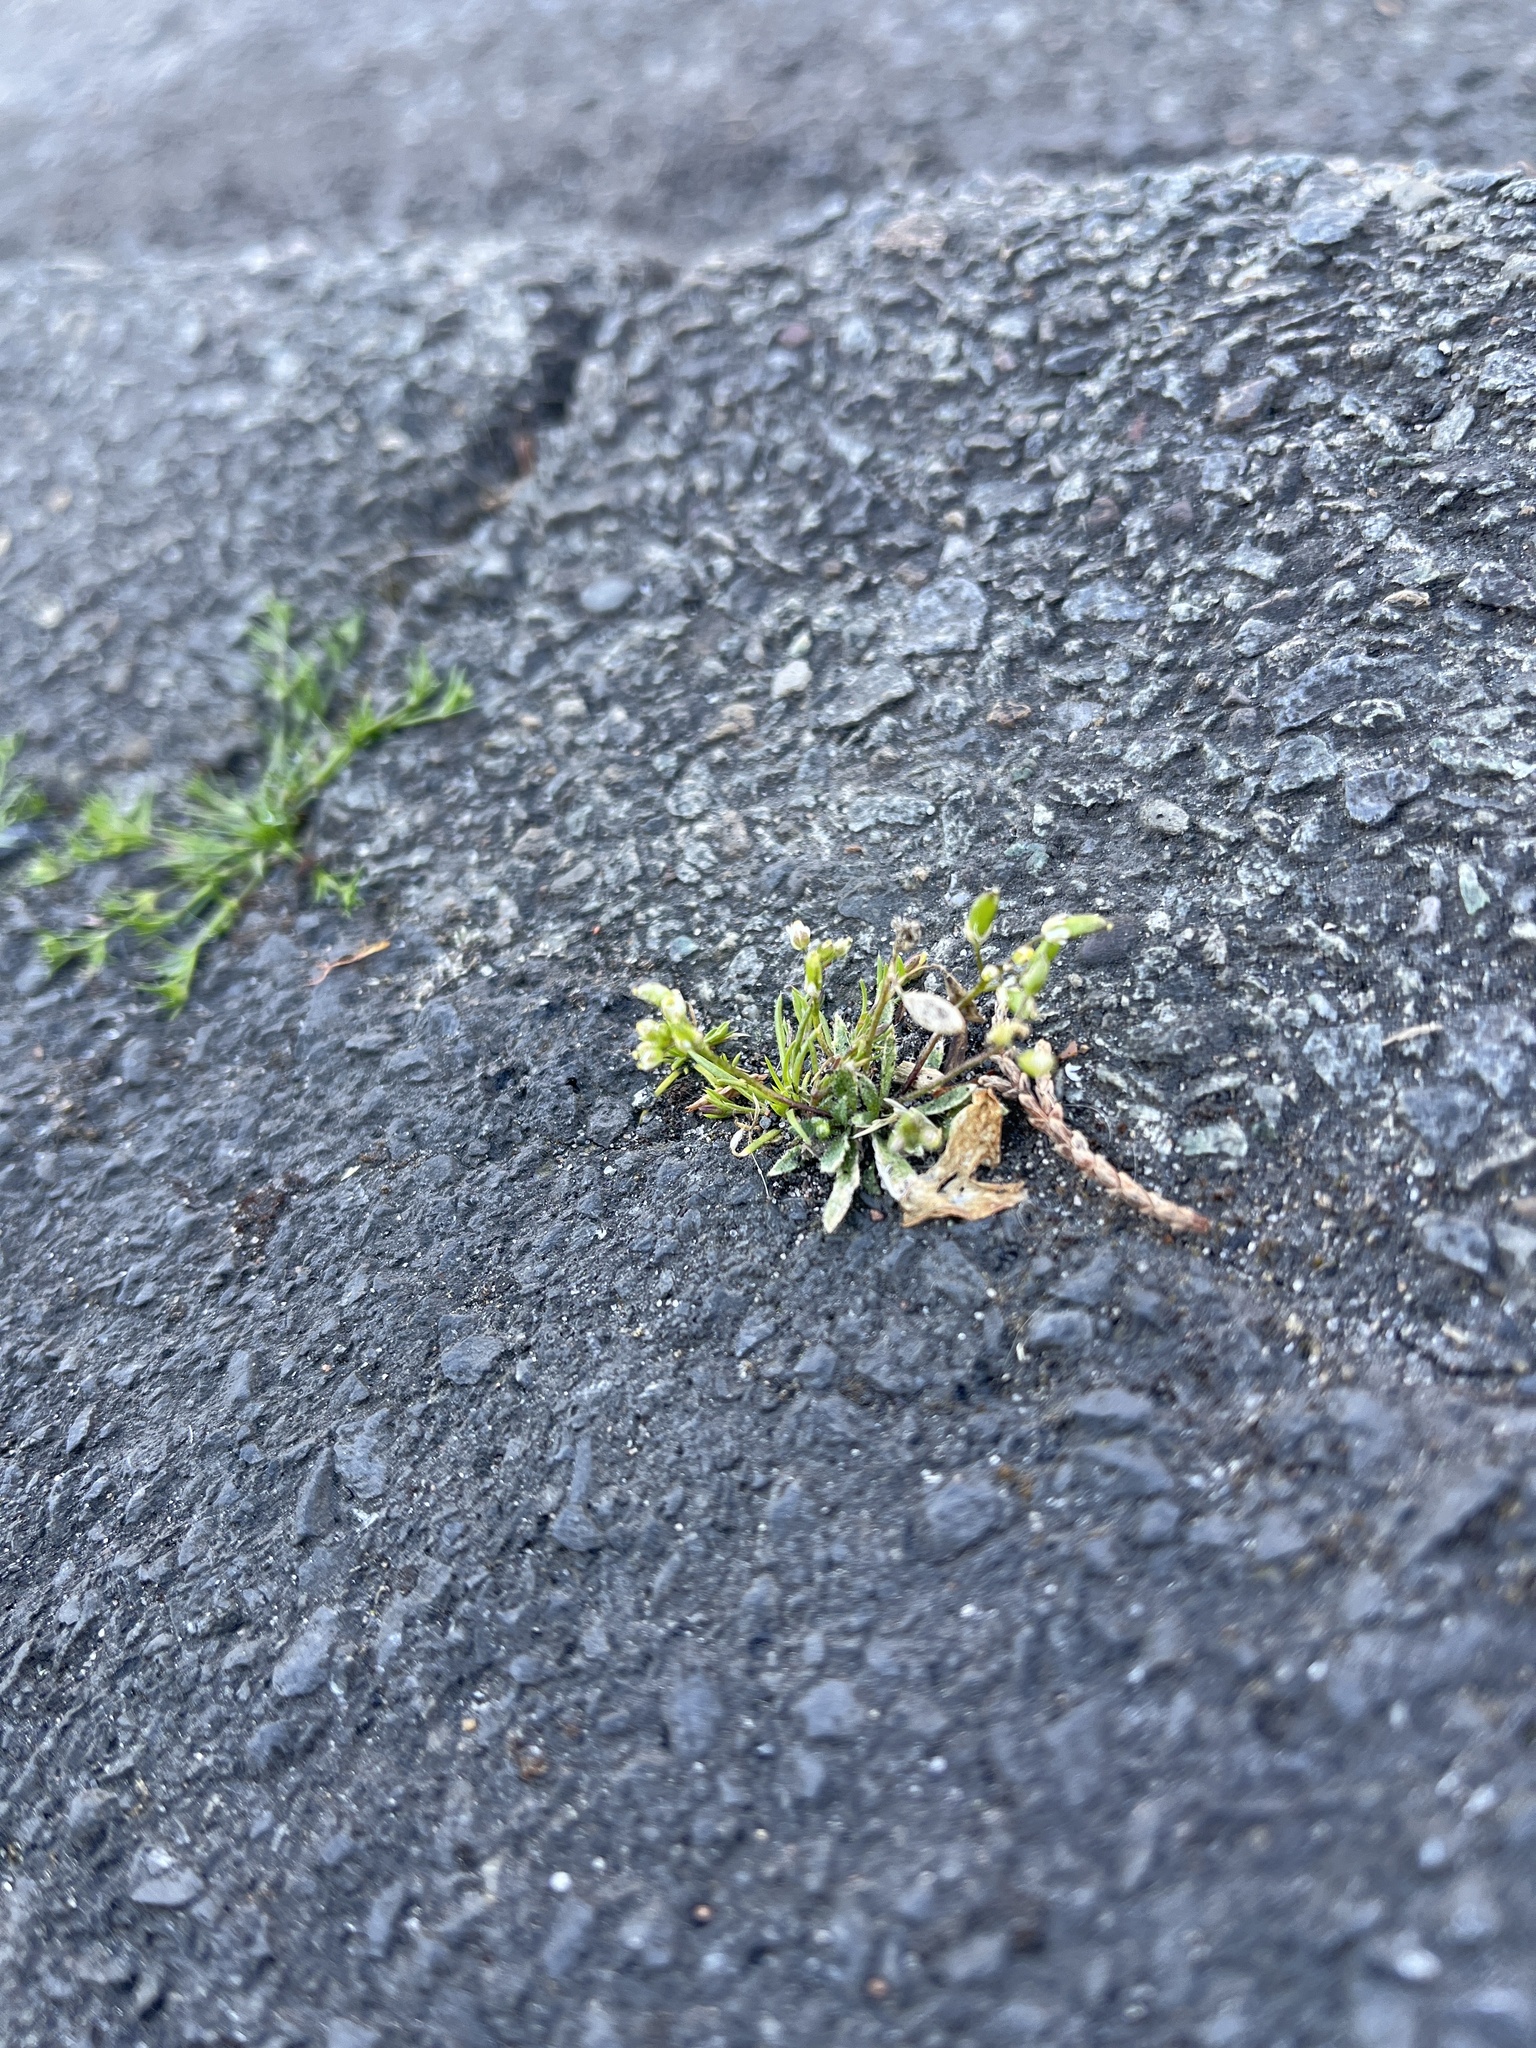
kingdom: Plantae
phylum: Tracheophyta
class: Magnoliopsida
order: Brassicales
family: Brassicaceae
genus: Draba
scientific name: Draba verna
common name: Spring draba
